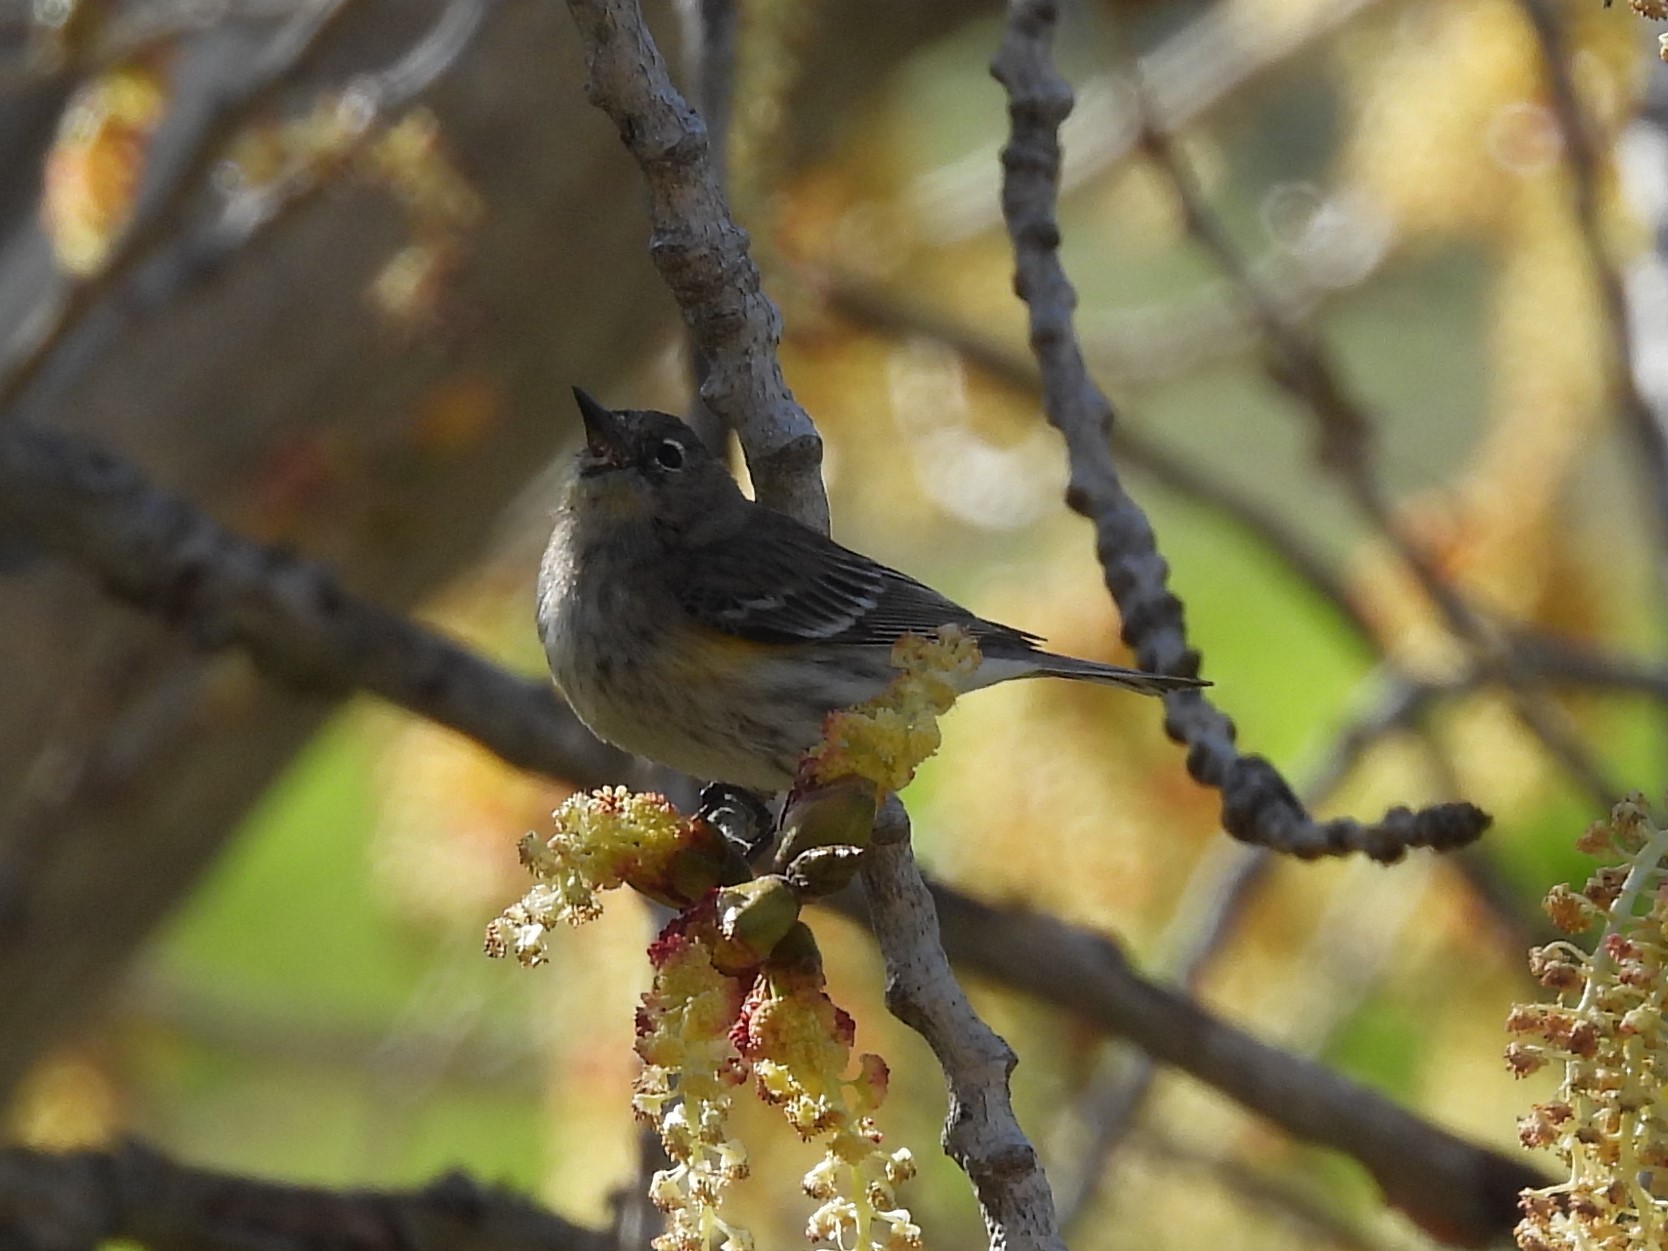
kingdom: Animalia
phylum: Chordata
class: Aves
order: Passeriformes
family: Parulidae
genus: Setophaga
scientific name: Setophaga coronata
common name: Myrtle warbler
